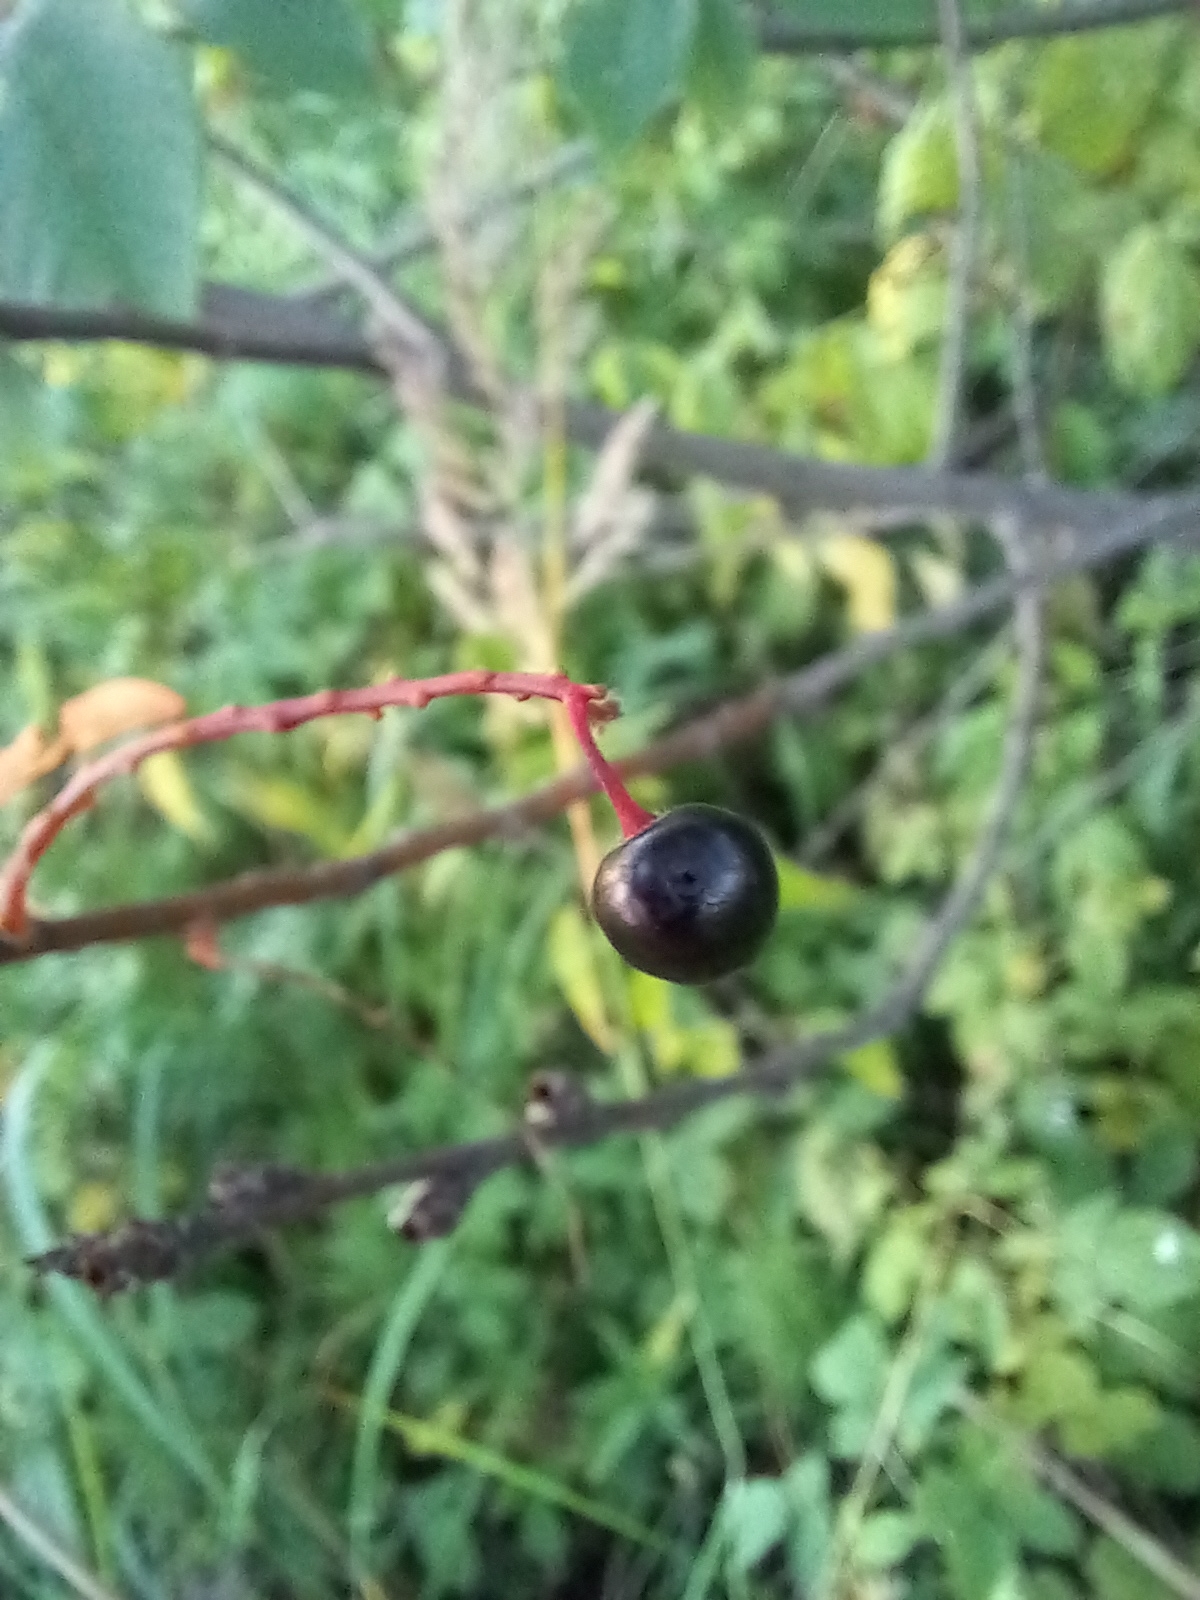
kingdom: Plantae
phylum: Tracheophyta
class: Magnoliopsida
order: Rosales
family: Rosaceae
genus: Prunus
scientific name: Prunus padus
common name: Bird cherry
